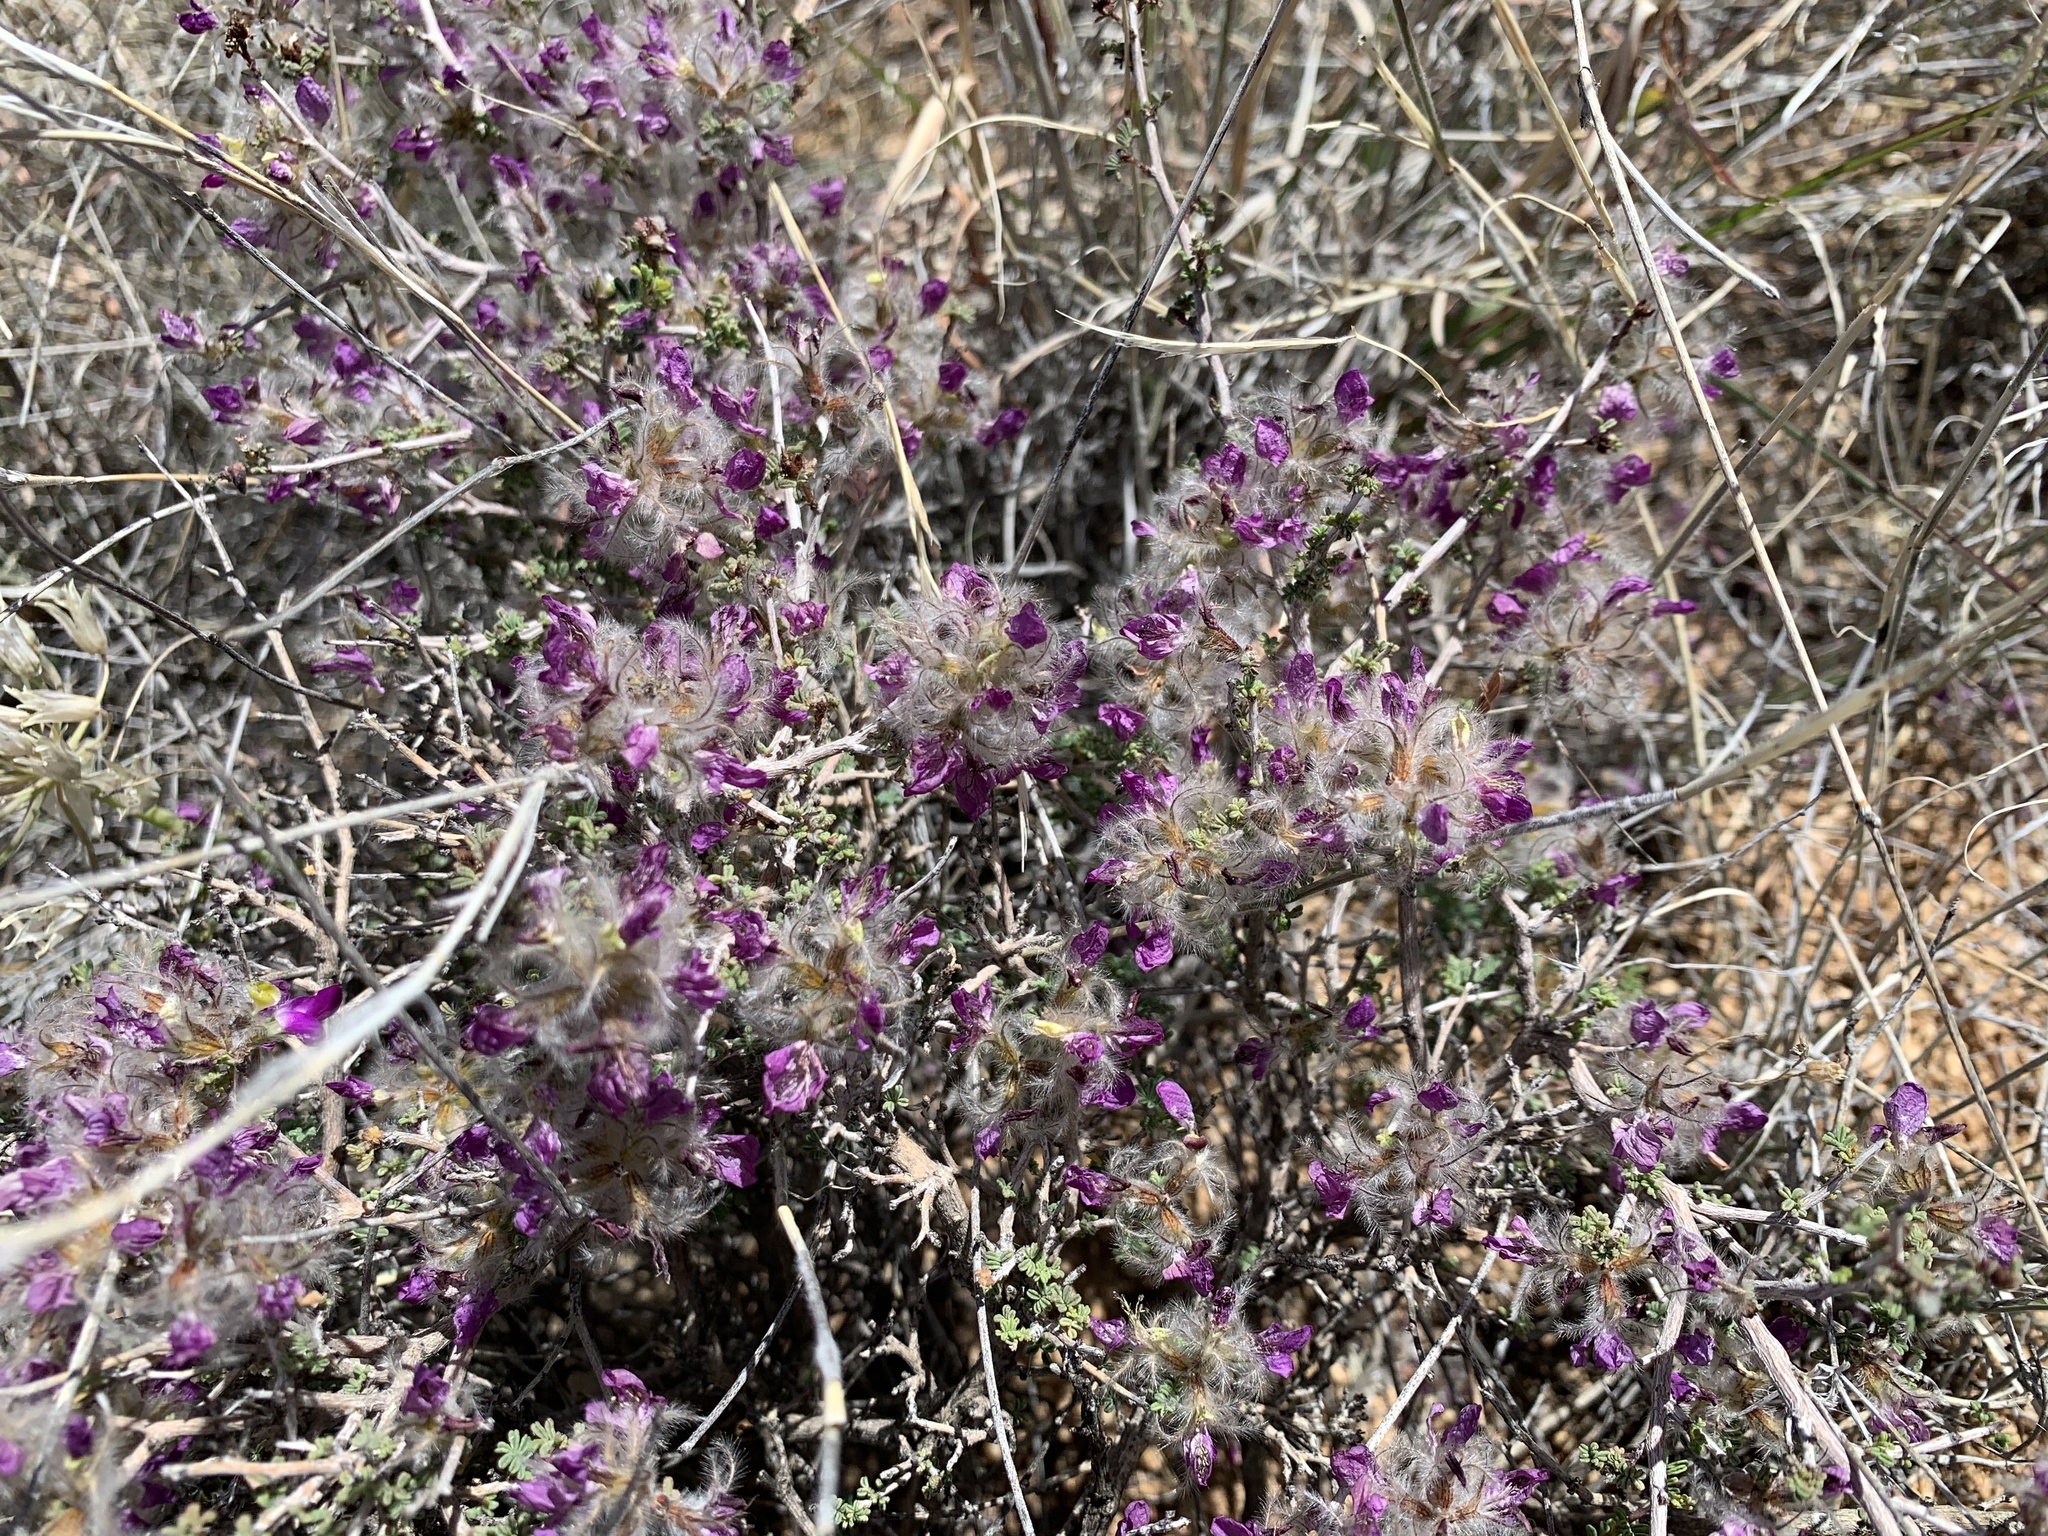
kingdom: Plantae
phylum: Tracheophyta
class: Magnoliopsida
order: Fabales
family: Fabaceae
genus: Dalea
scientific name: Dalea formosa
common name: Feather-plume dalea
